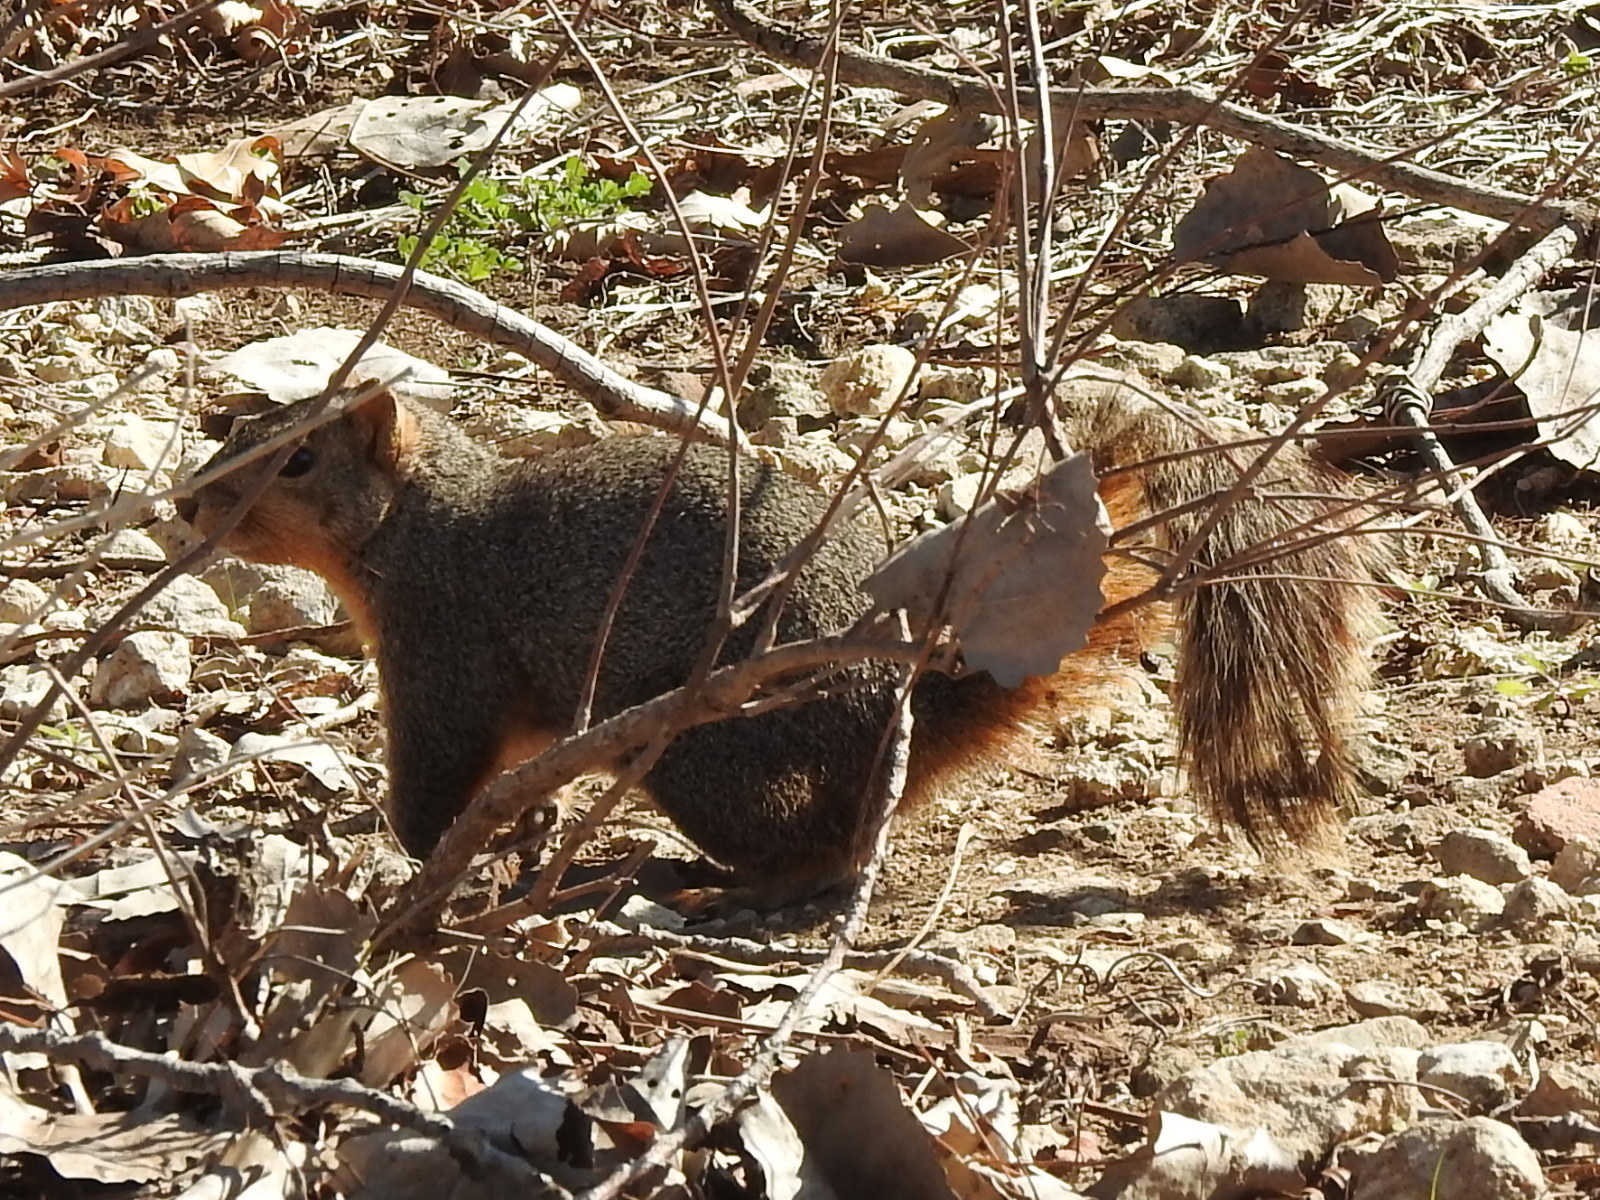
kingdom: Animalia
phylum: Chordata
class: Mammalia
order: Rodentia
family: Sciuridae
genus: Sciurus
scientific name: Sciurus niger
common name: Fox squirrel
